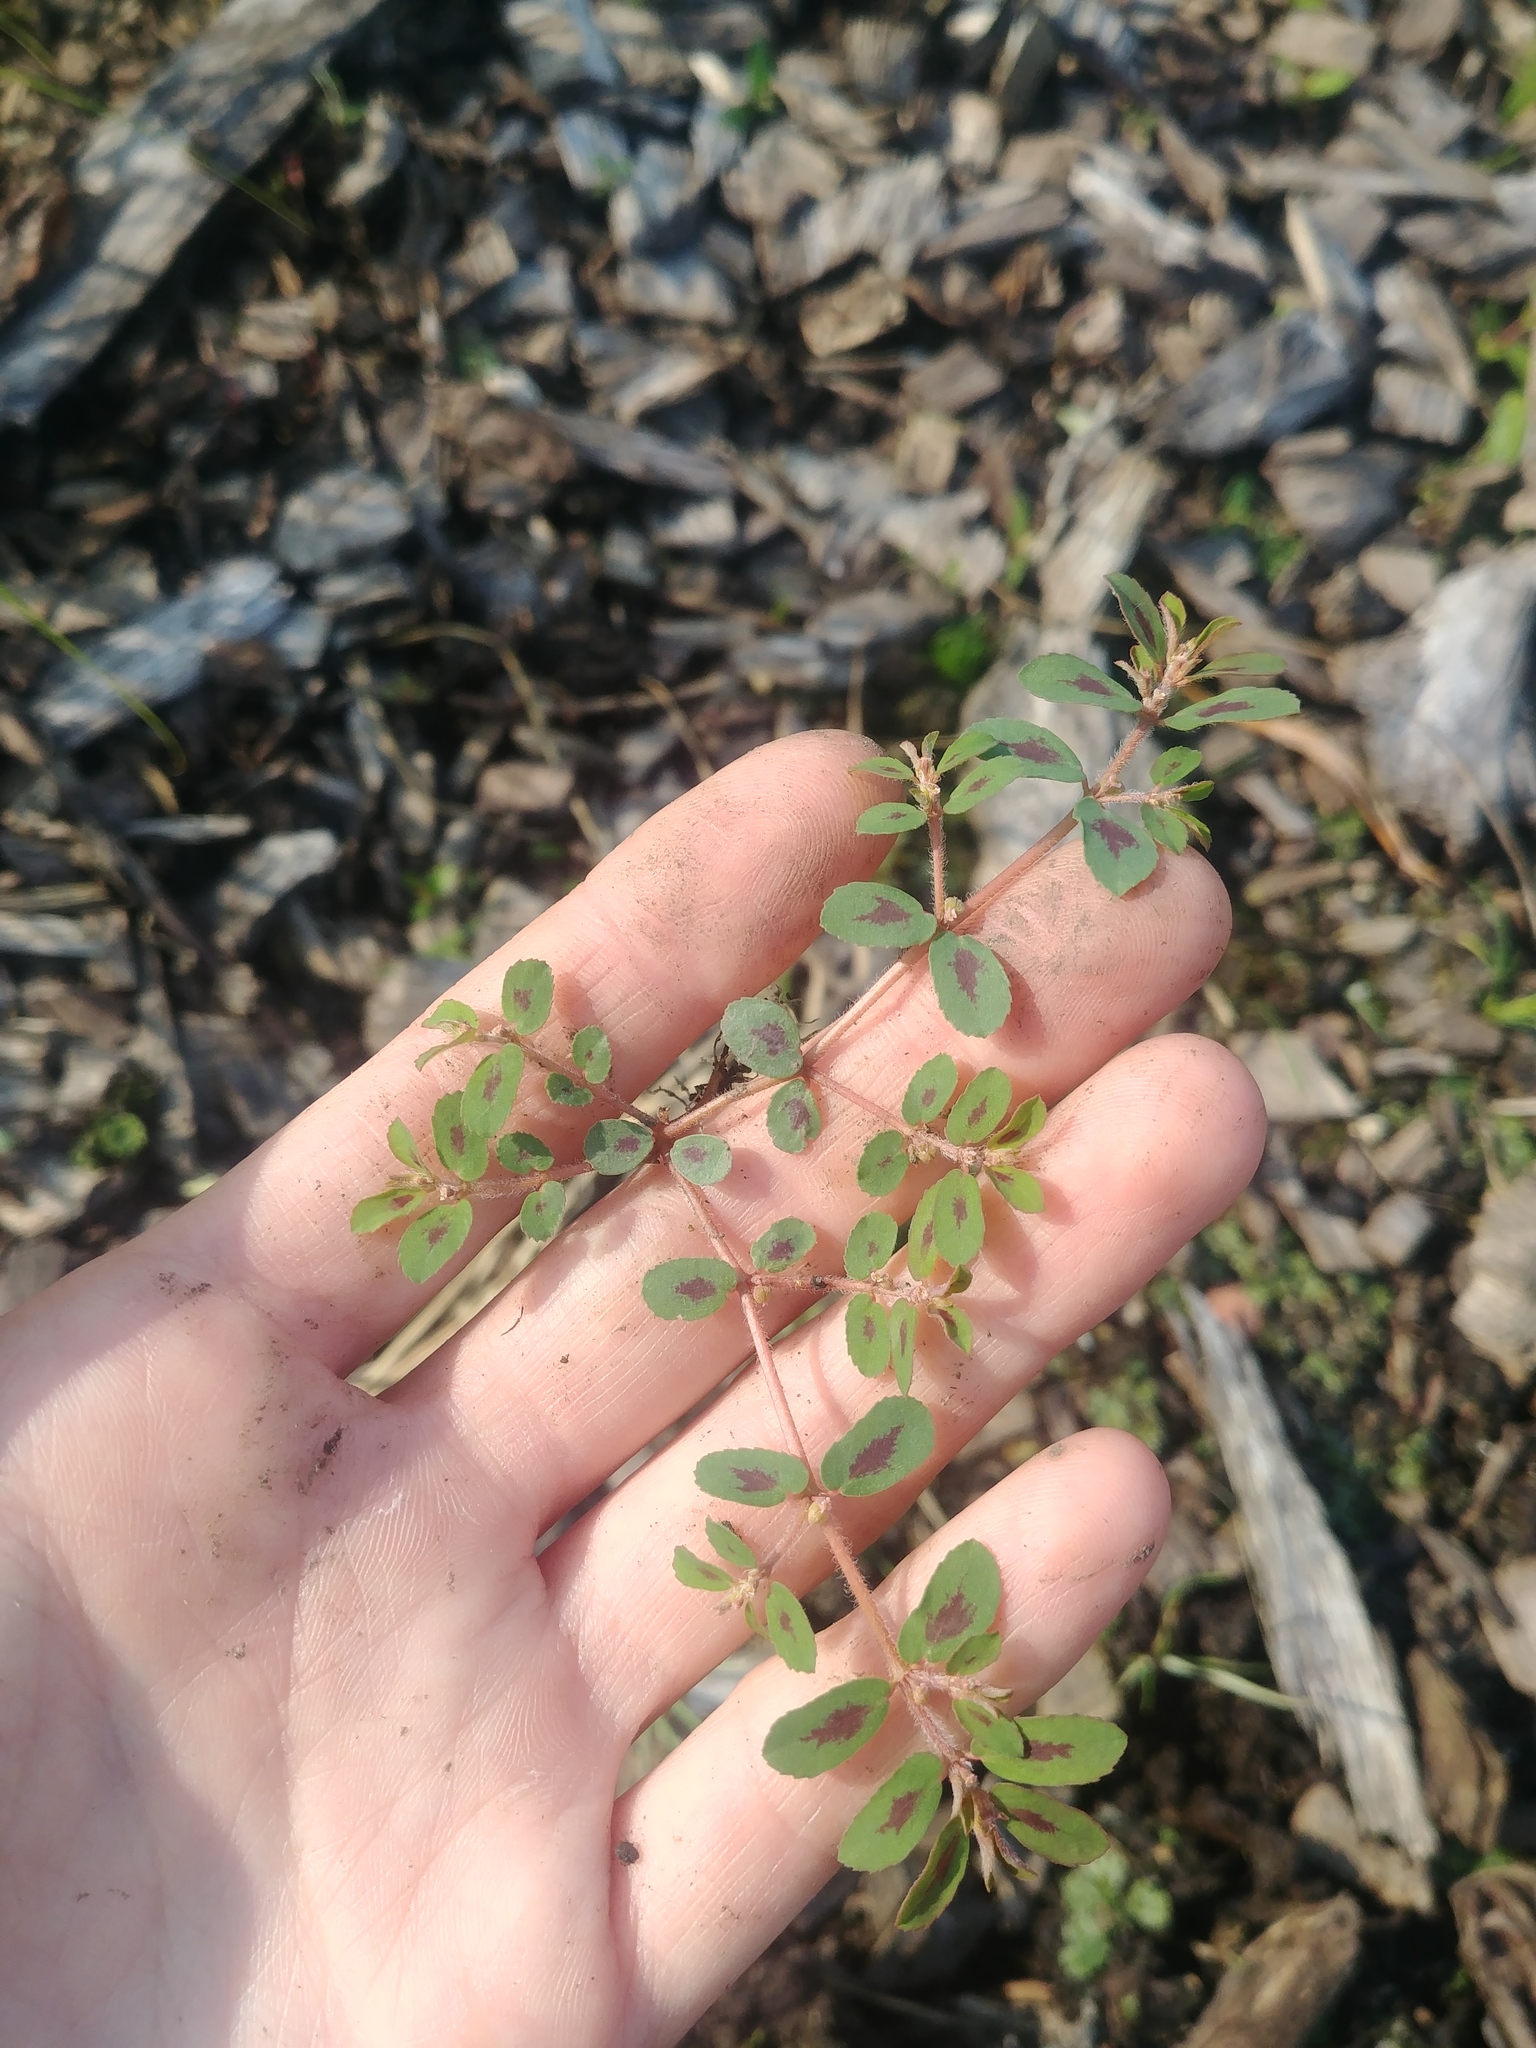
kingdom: Plantae
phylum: Tracheophyta
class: Magnoliopsida
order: Malpighiales
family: Euphorbiaceae
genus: Euphorbia
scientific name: Euphorbia maculata
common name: Spotted spurge
